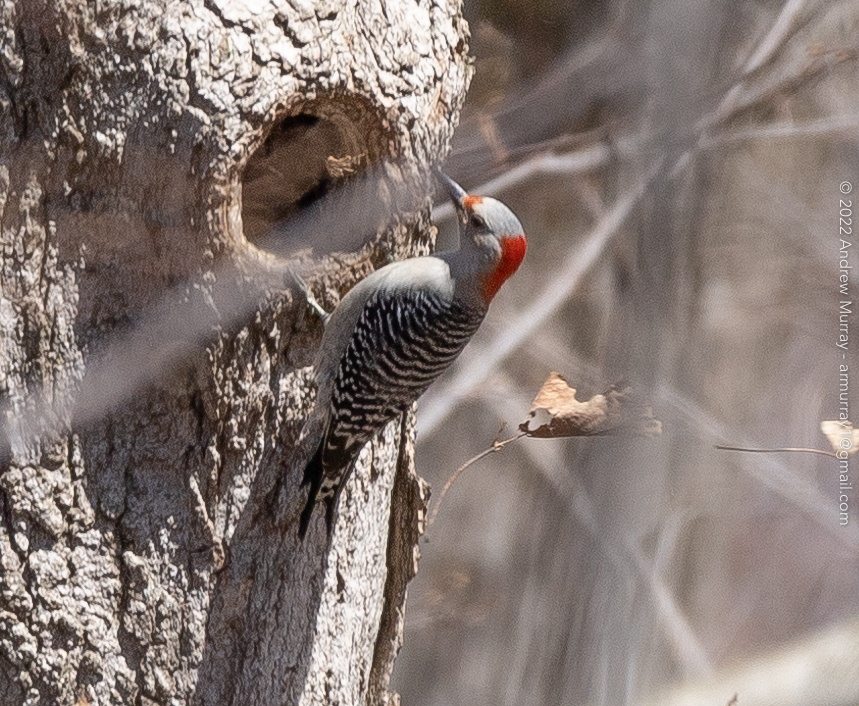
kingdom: Animalia
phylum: Chordata
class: Aves
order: Piciformes
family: Picidae
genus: Melanerpes
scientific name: Melanerpes carolinus
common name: Red-bellied woodpecker
